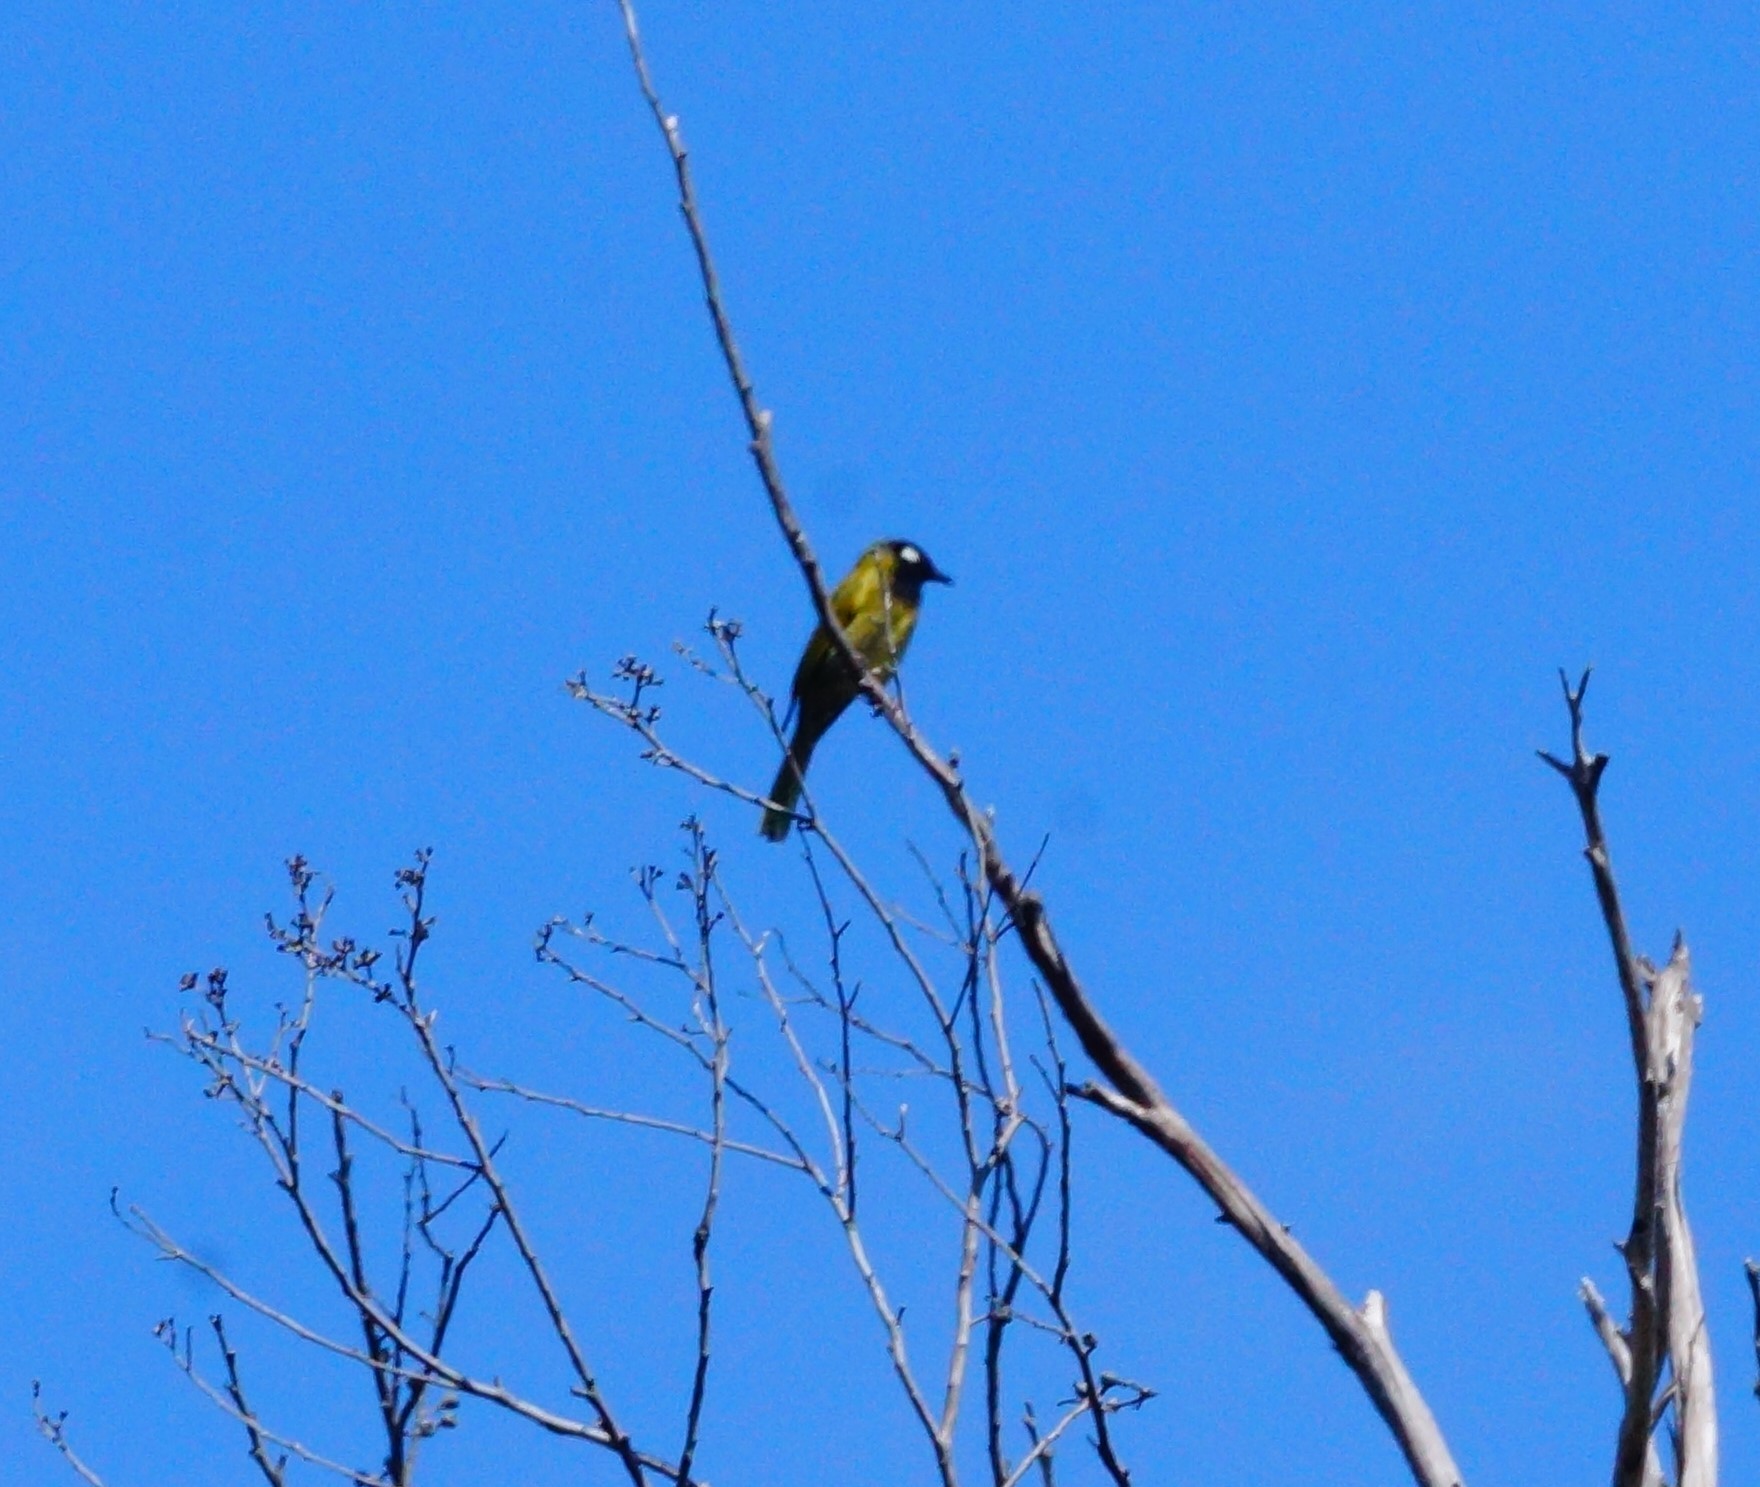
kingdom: Animalia
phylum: Chordata
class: Aves
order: Passeriformes
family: Meliphagidae
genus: Nesoptilotis
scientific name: Nesoptilotis leucotis
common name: White-eared honeyeater
